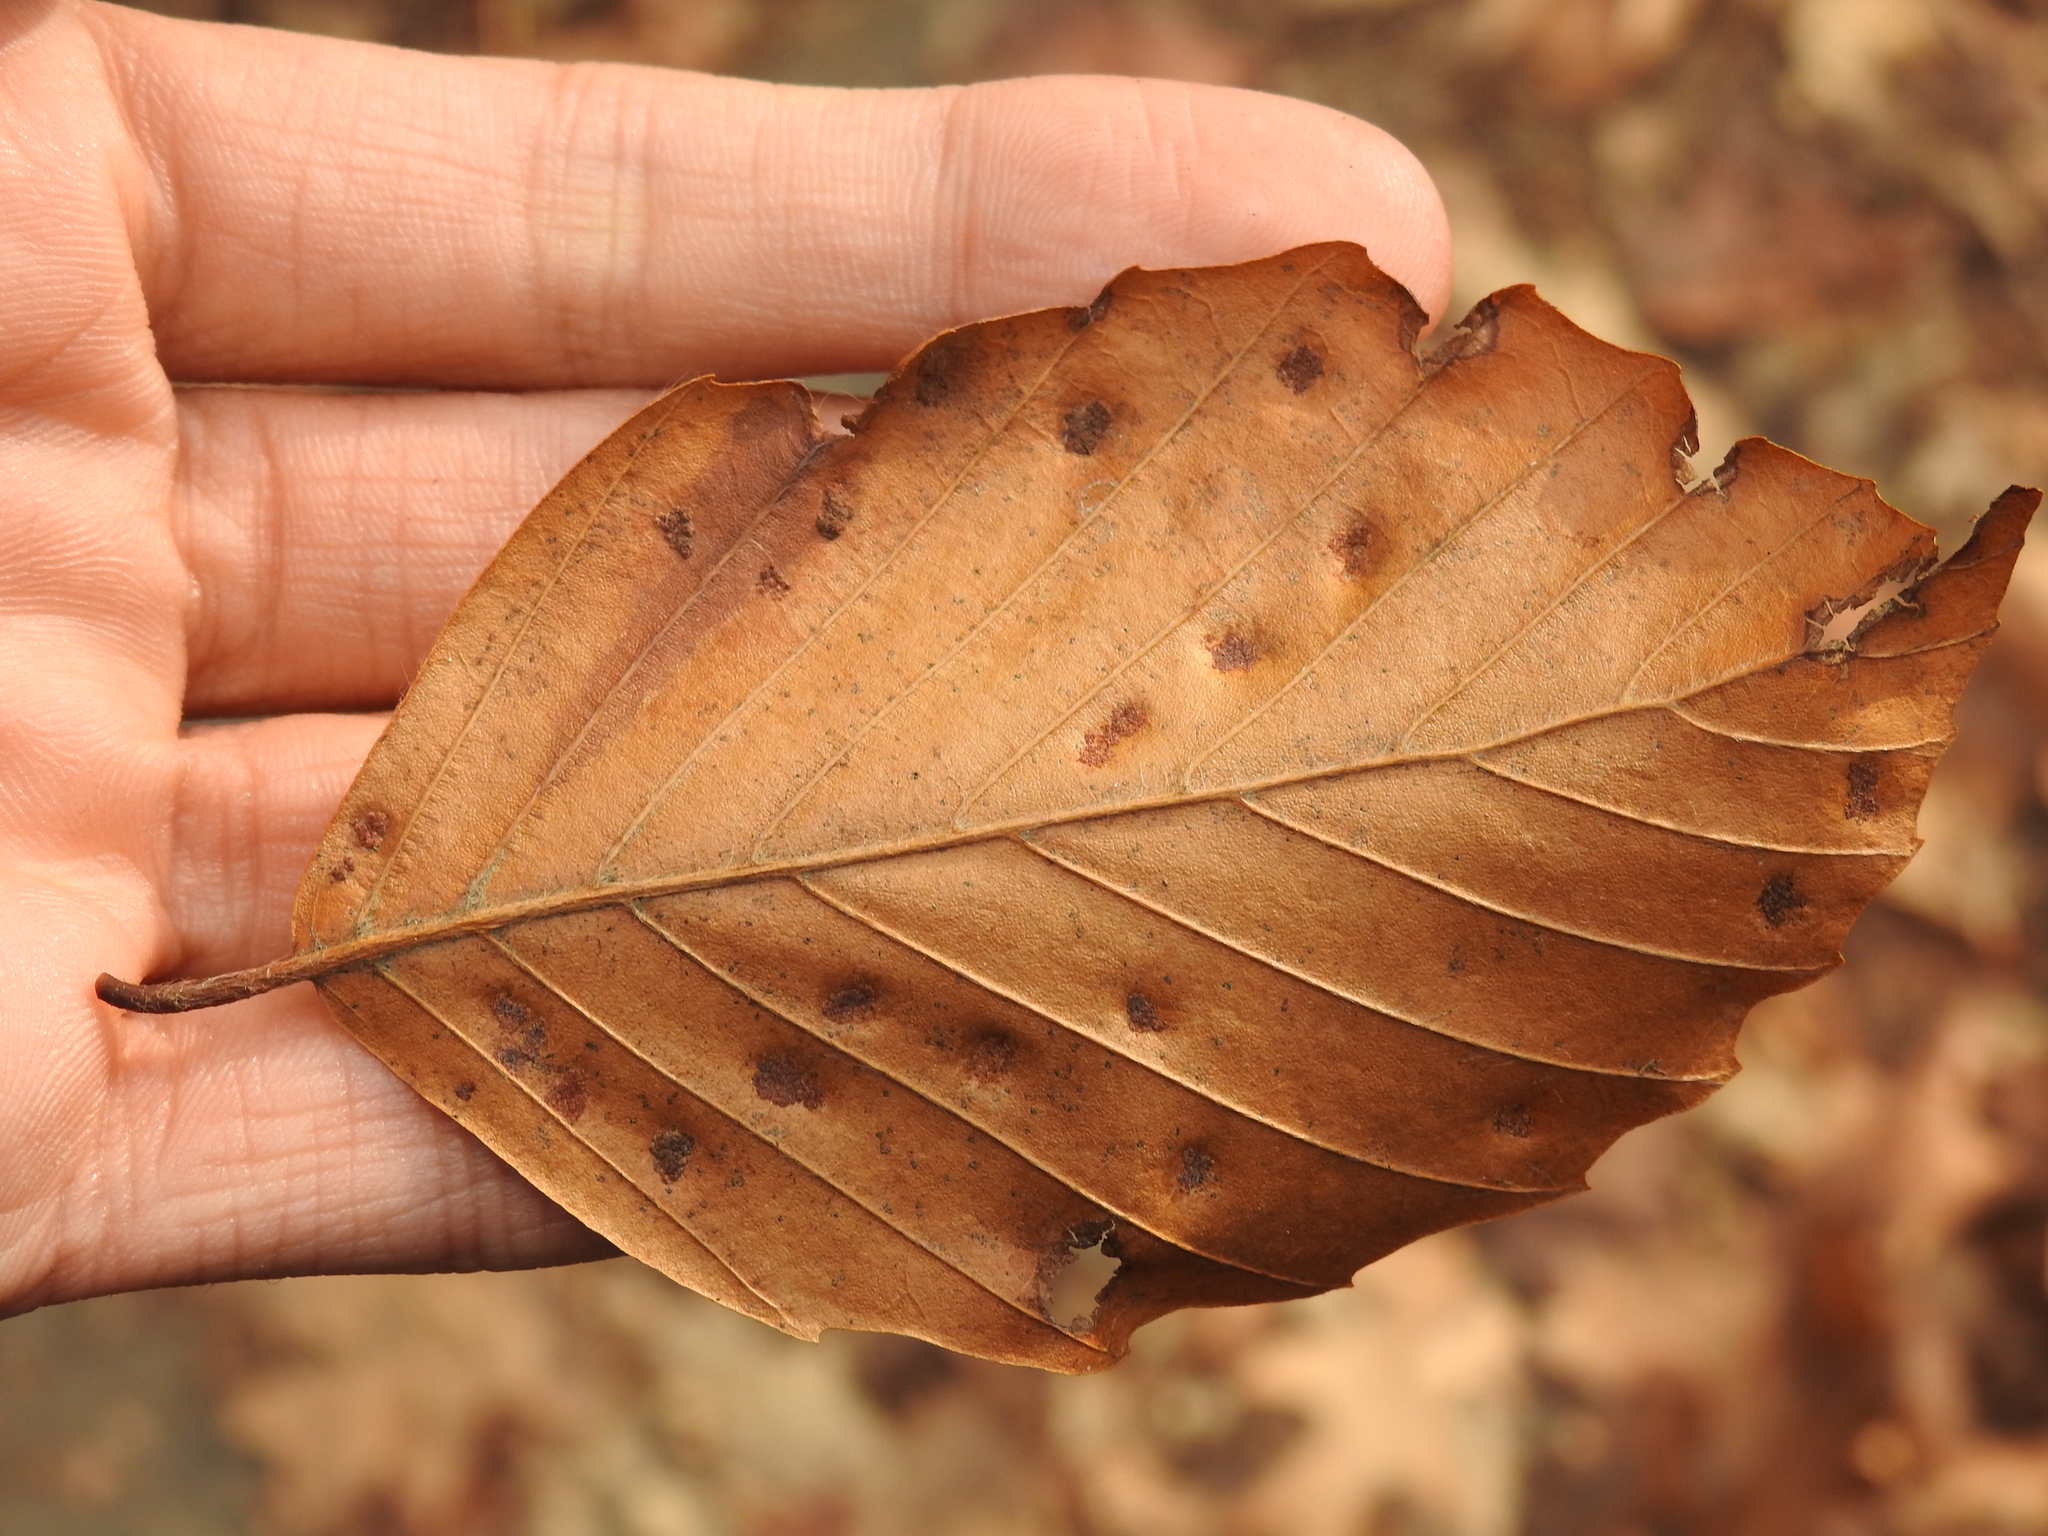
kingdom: Animalia
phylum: Arthropoda
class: Arachnida
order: Trombidiformes
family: Eriophyidae
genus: Acalitus
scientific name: Acalitus
